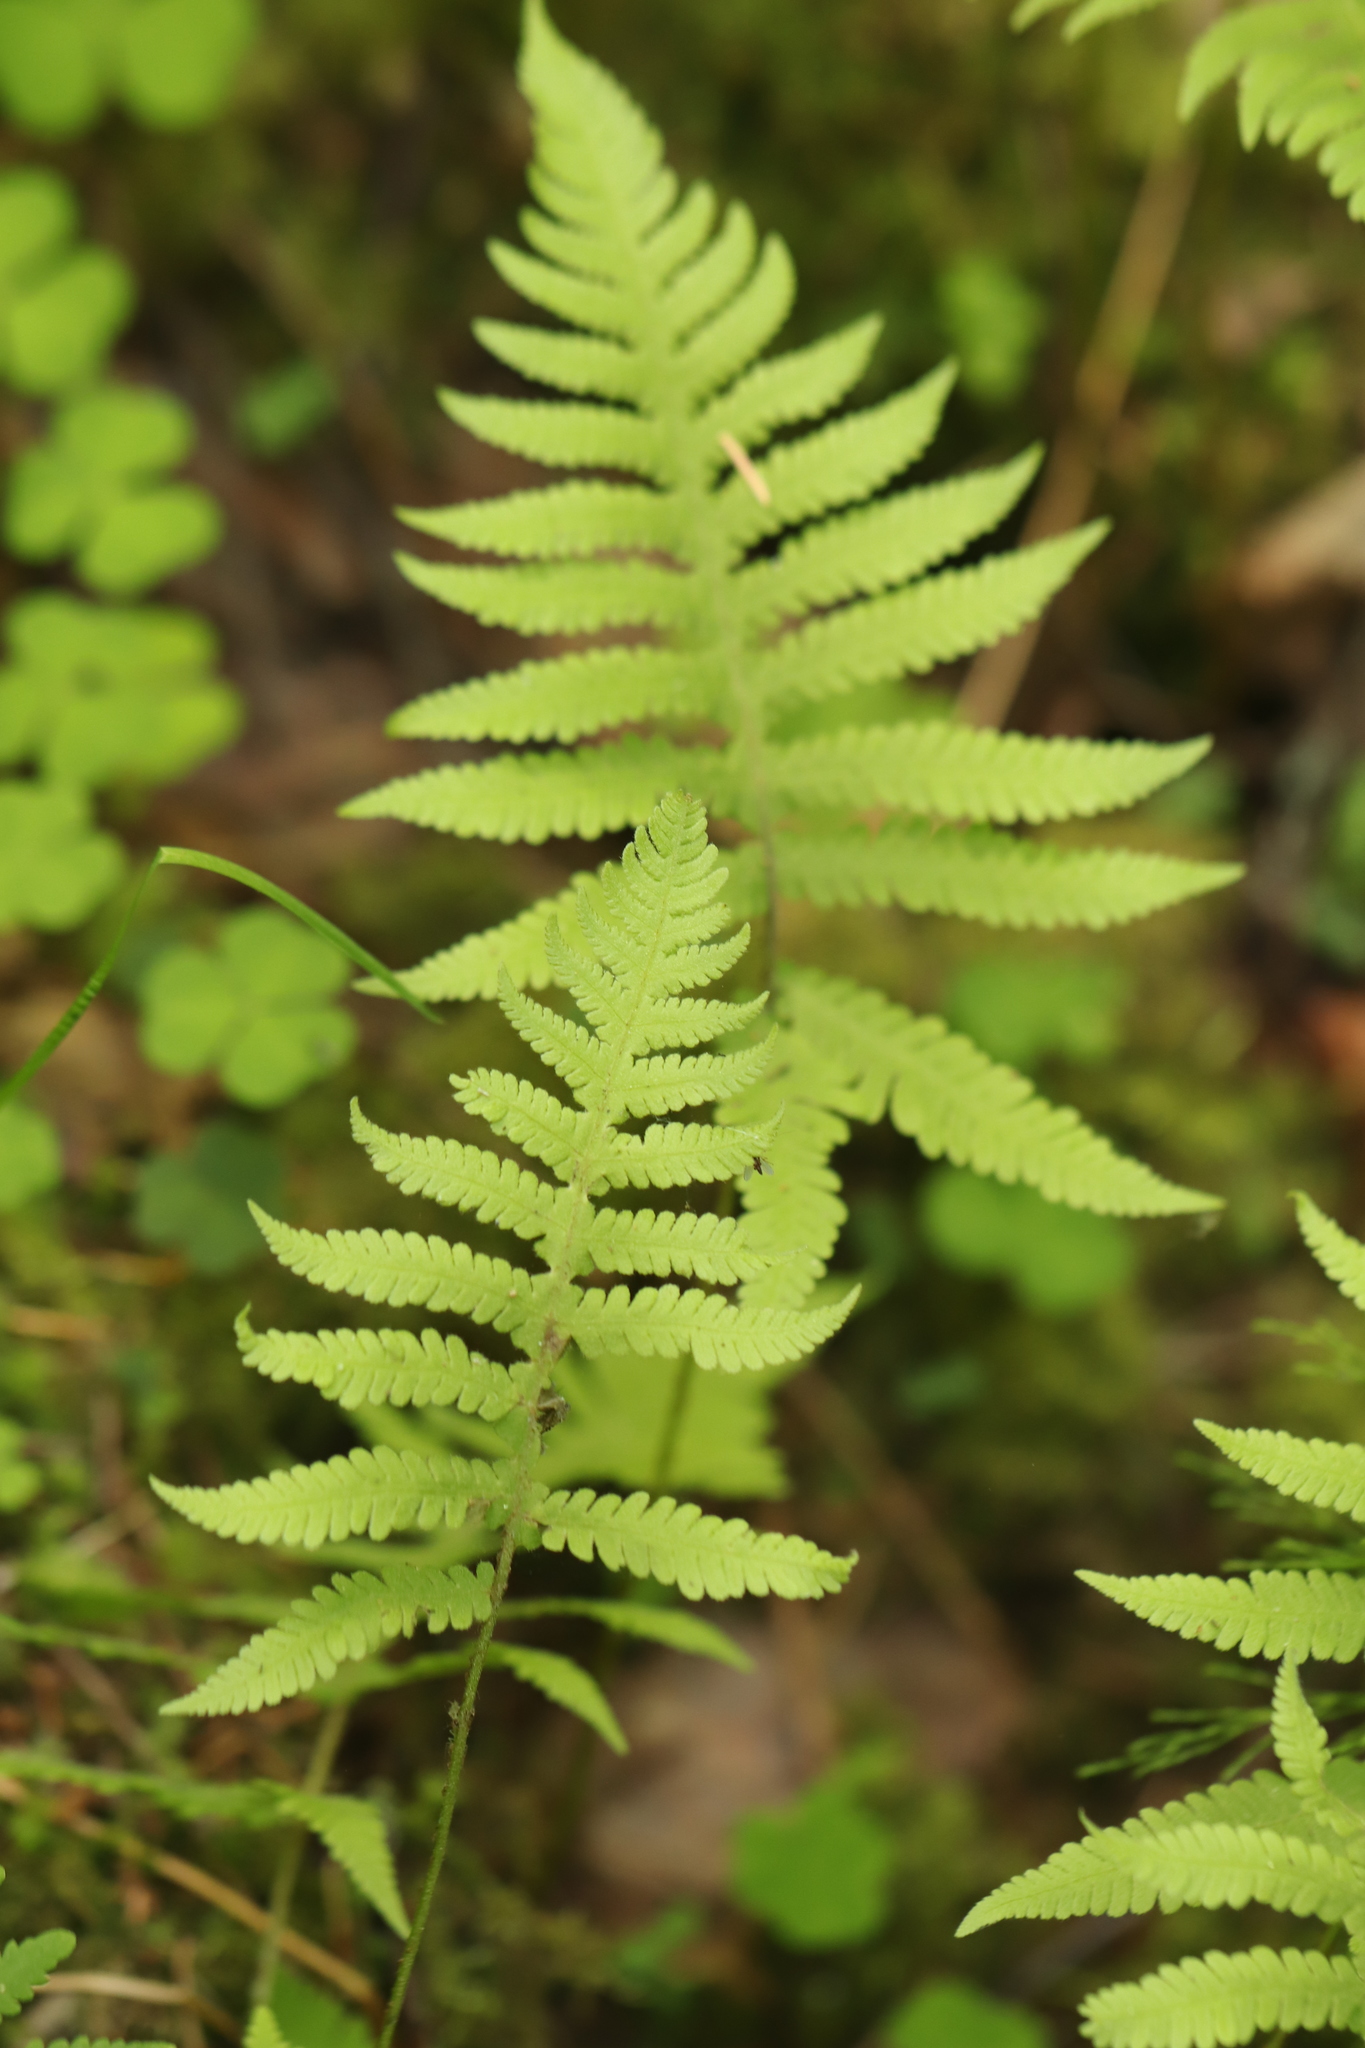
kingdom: Plantae
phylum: Tracheophyta
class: Polypodiopsida
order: Polypodiales
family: Thelypteridaceae
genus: Phegopteris
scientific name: Phegopteris connectilis
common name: Beech fern
